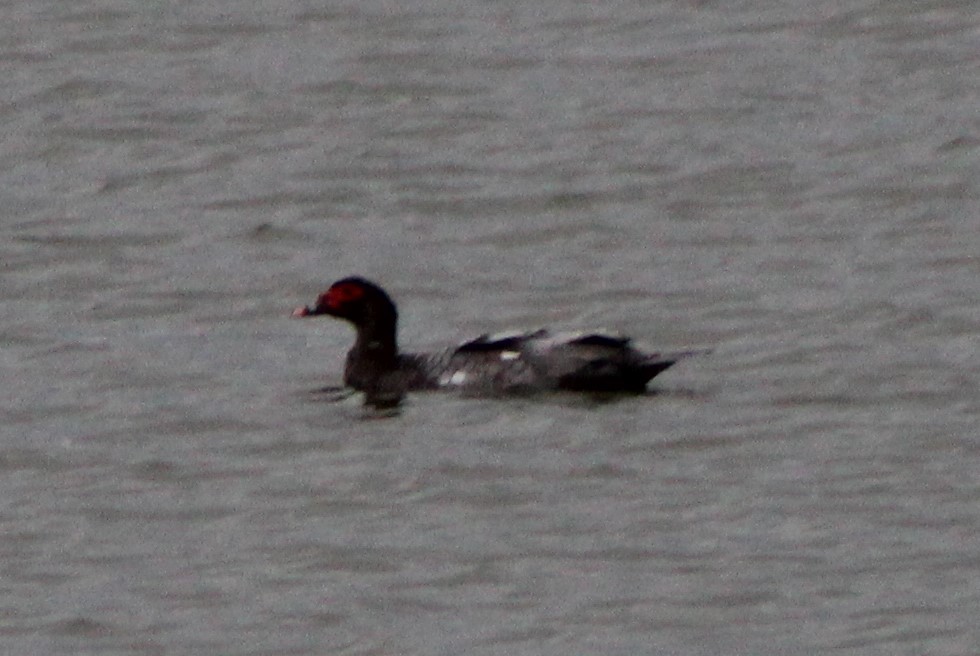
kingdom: Animalia
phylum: Chordata
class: Aves
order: Anseriformes
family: Anatidae
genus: Cairina
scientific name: Cairina moschata
